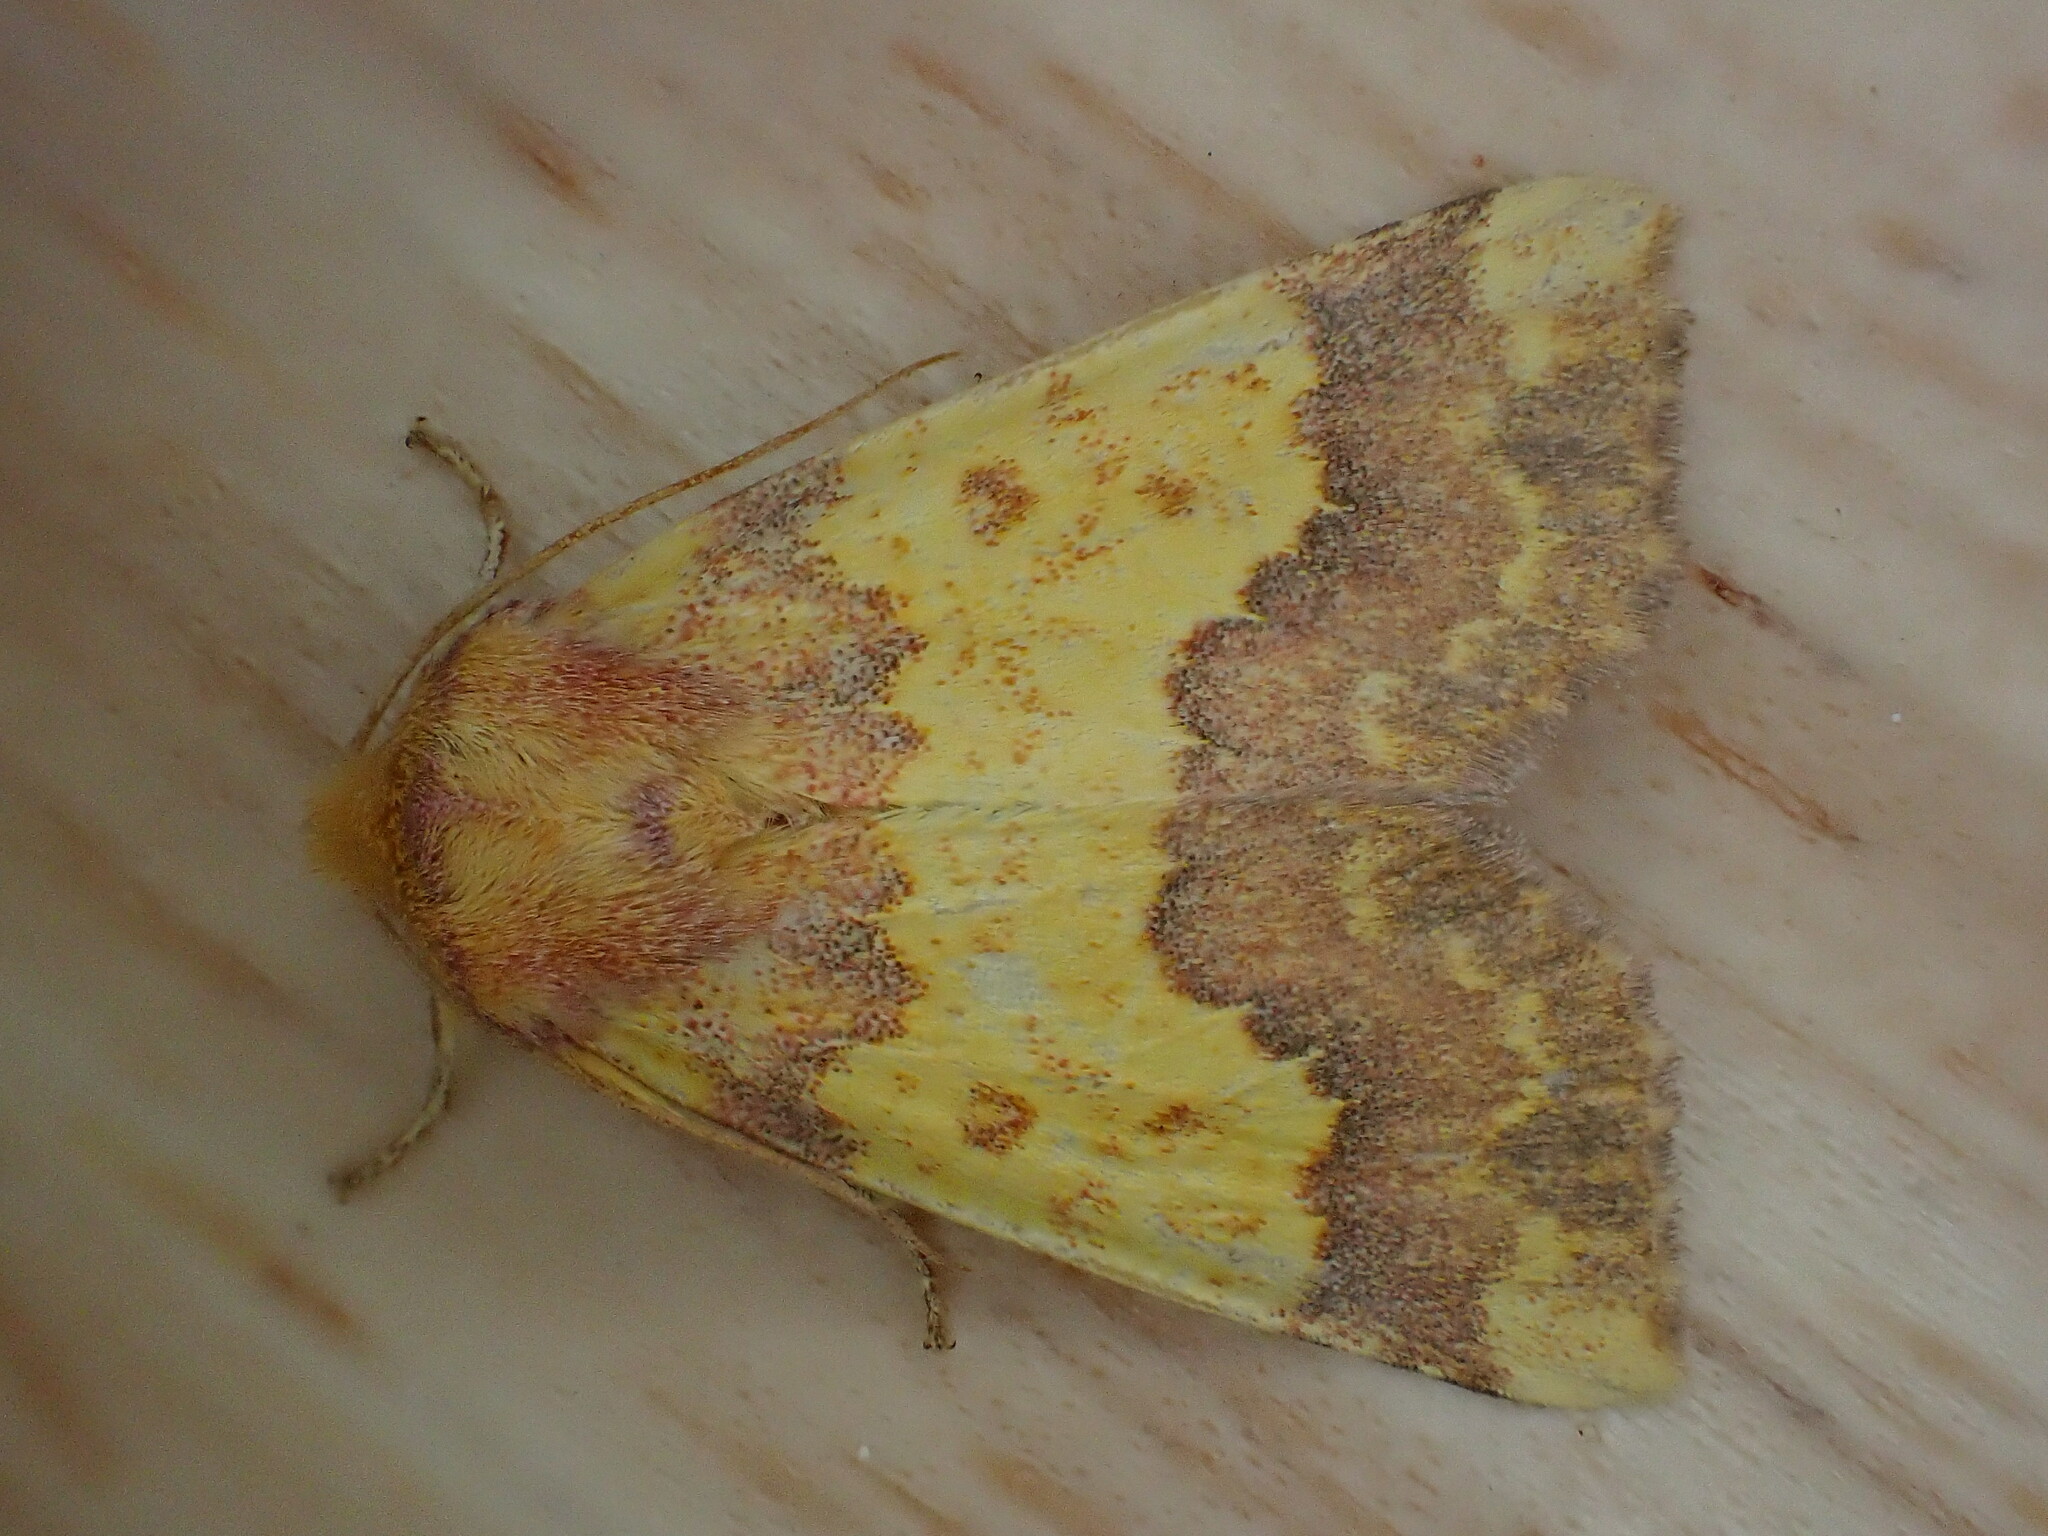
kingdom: Animalia
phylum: Arthropoda
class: Insecta
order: Lepidoptera
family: Noctuidae
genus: Tiliacea
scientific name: Tiliacea aurago
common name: Barred sallow
